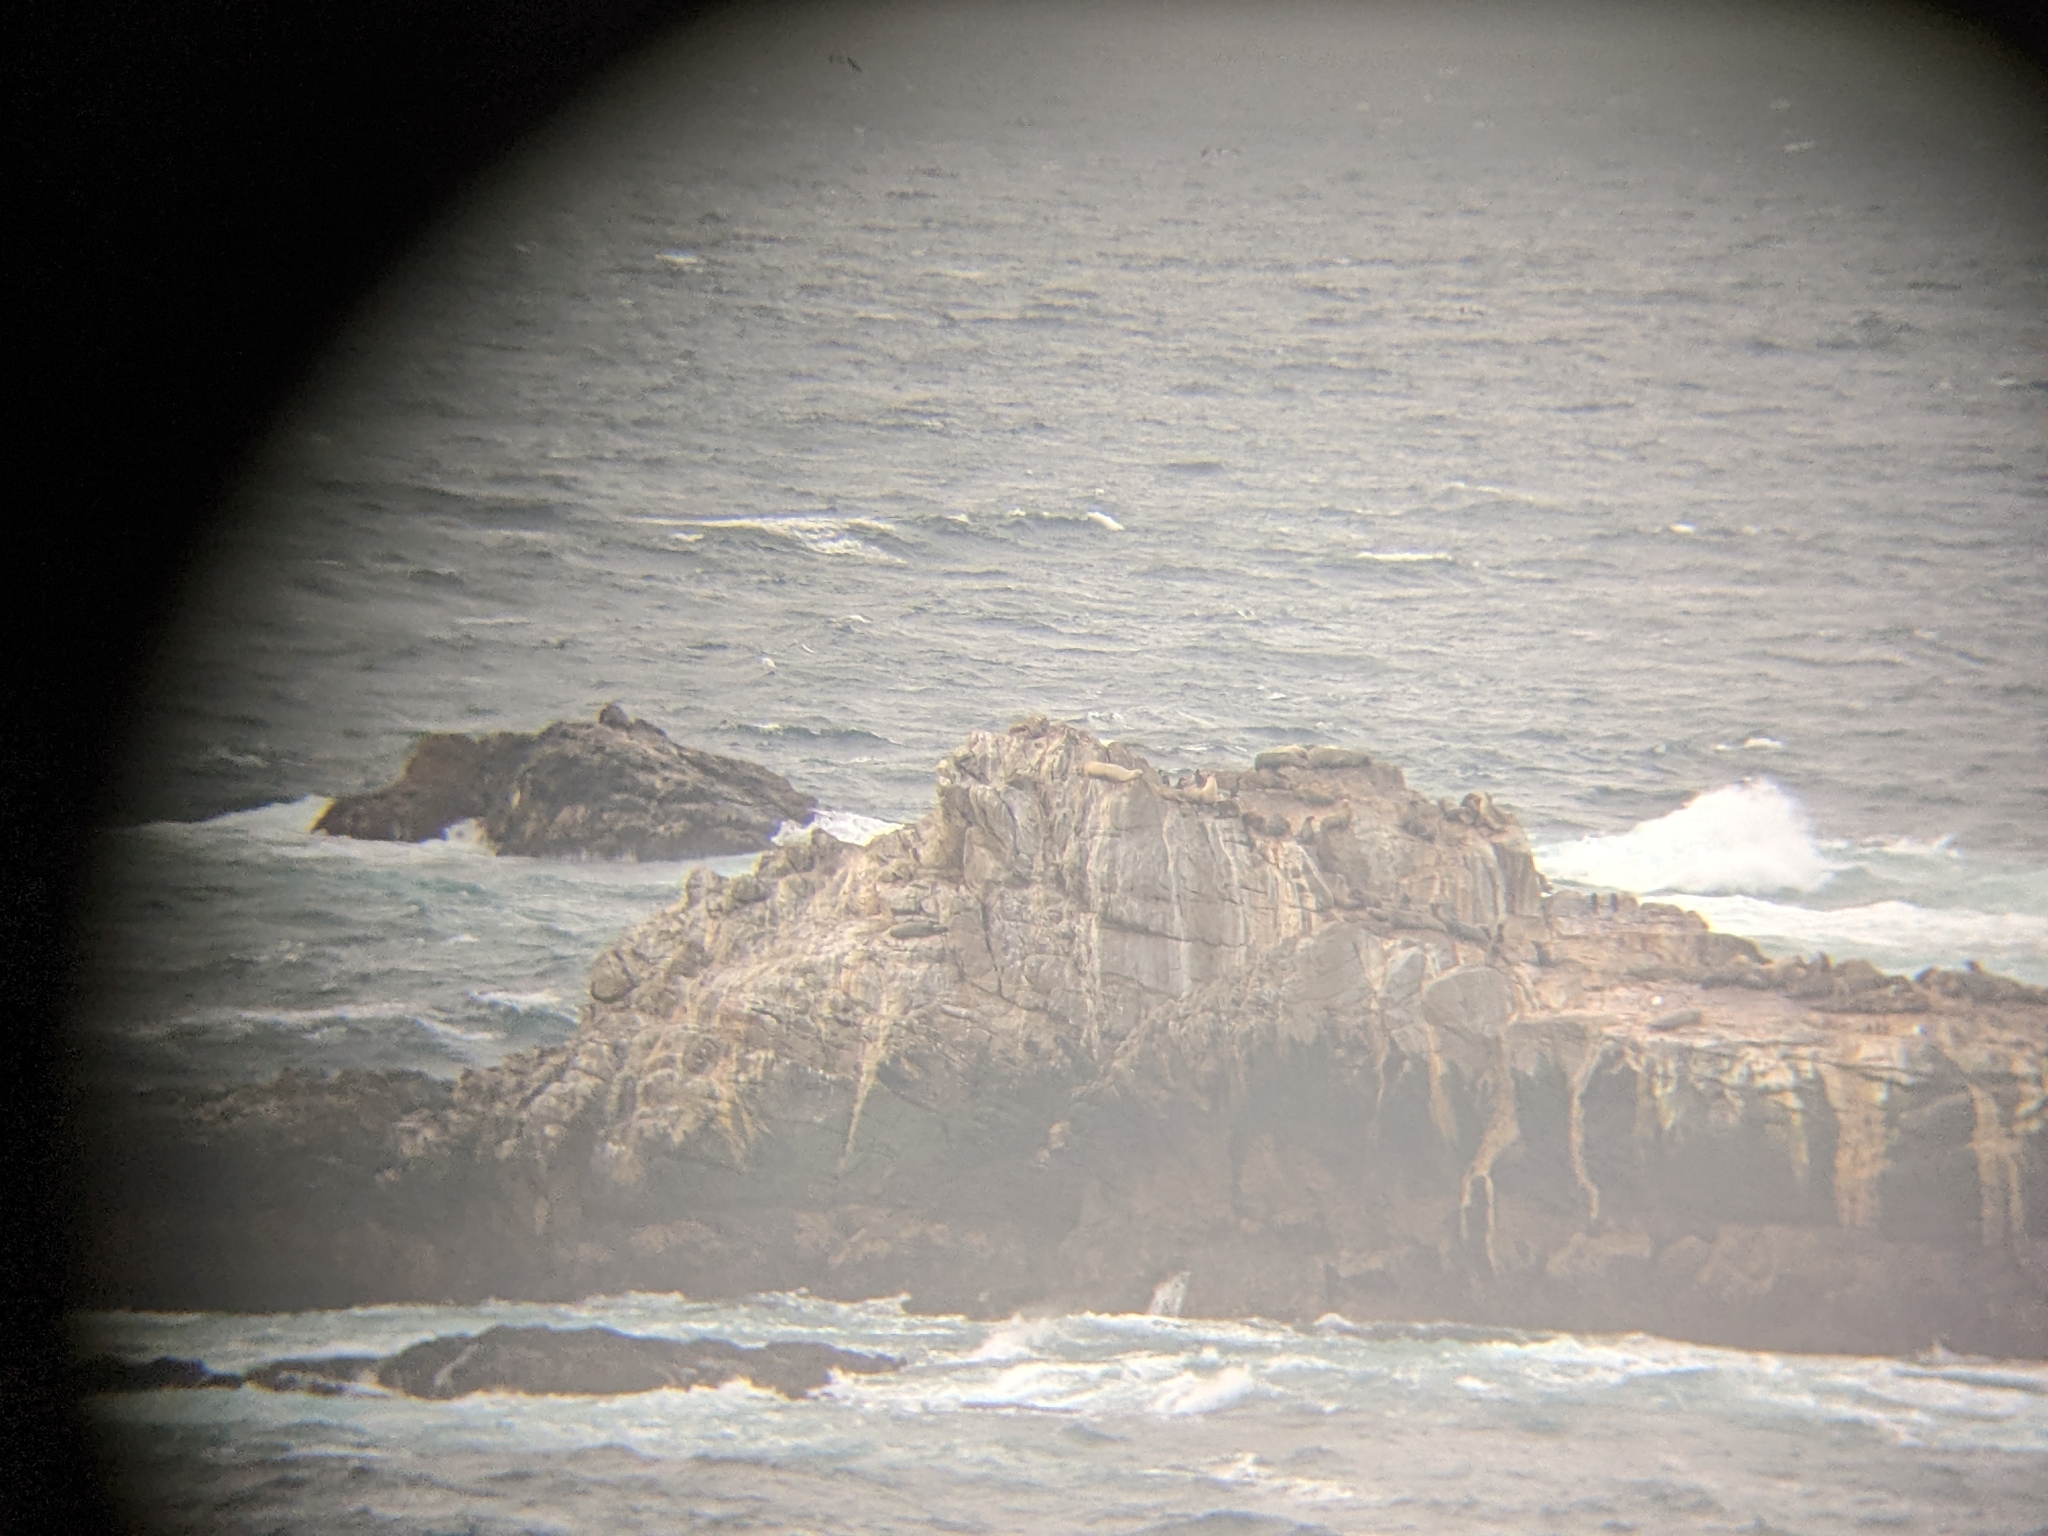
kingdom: Animalia
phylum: Chordata
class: Mammalia
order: Carnivora
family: Otariidae
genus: Zalophus
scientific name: Zalophus californianus
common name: California sea lion
